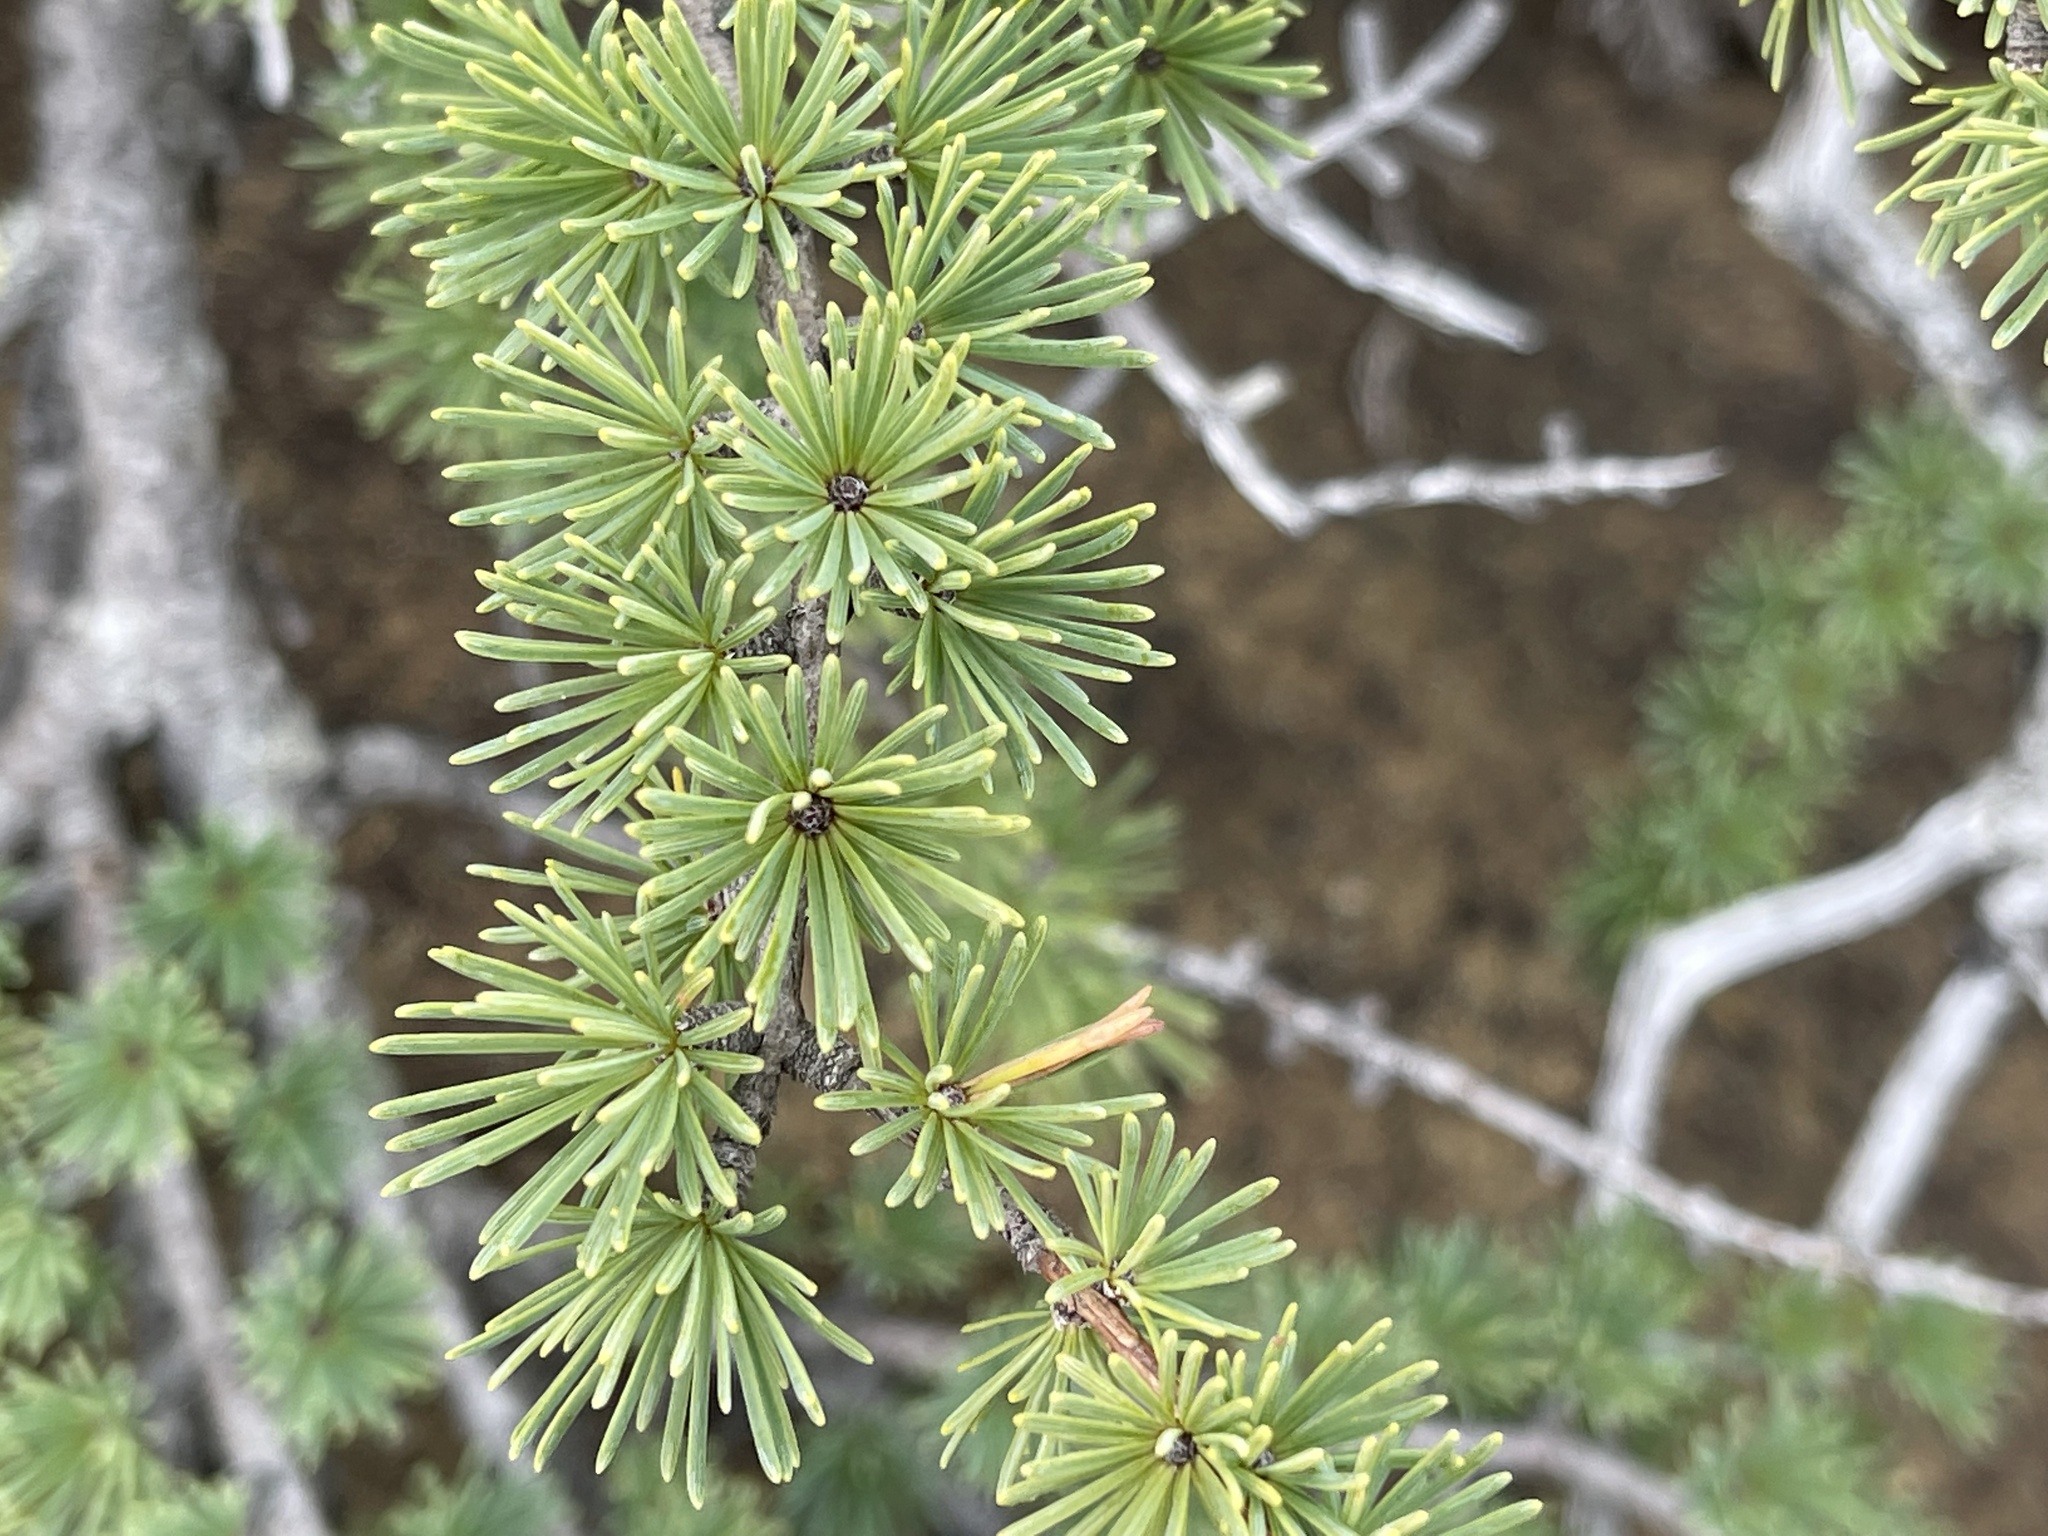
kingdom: Plantae
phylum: Tracheophyta
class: Pinopsida
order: Pinales
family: Pinaceae
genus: Larix
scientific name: Larix laricina
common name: American larch
